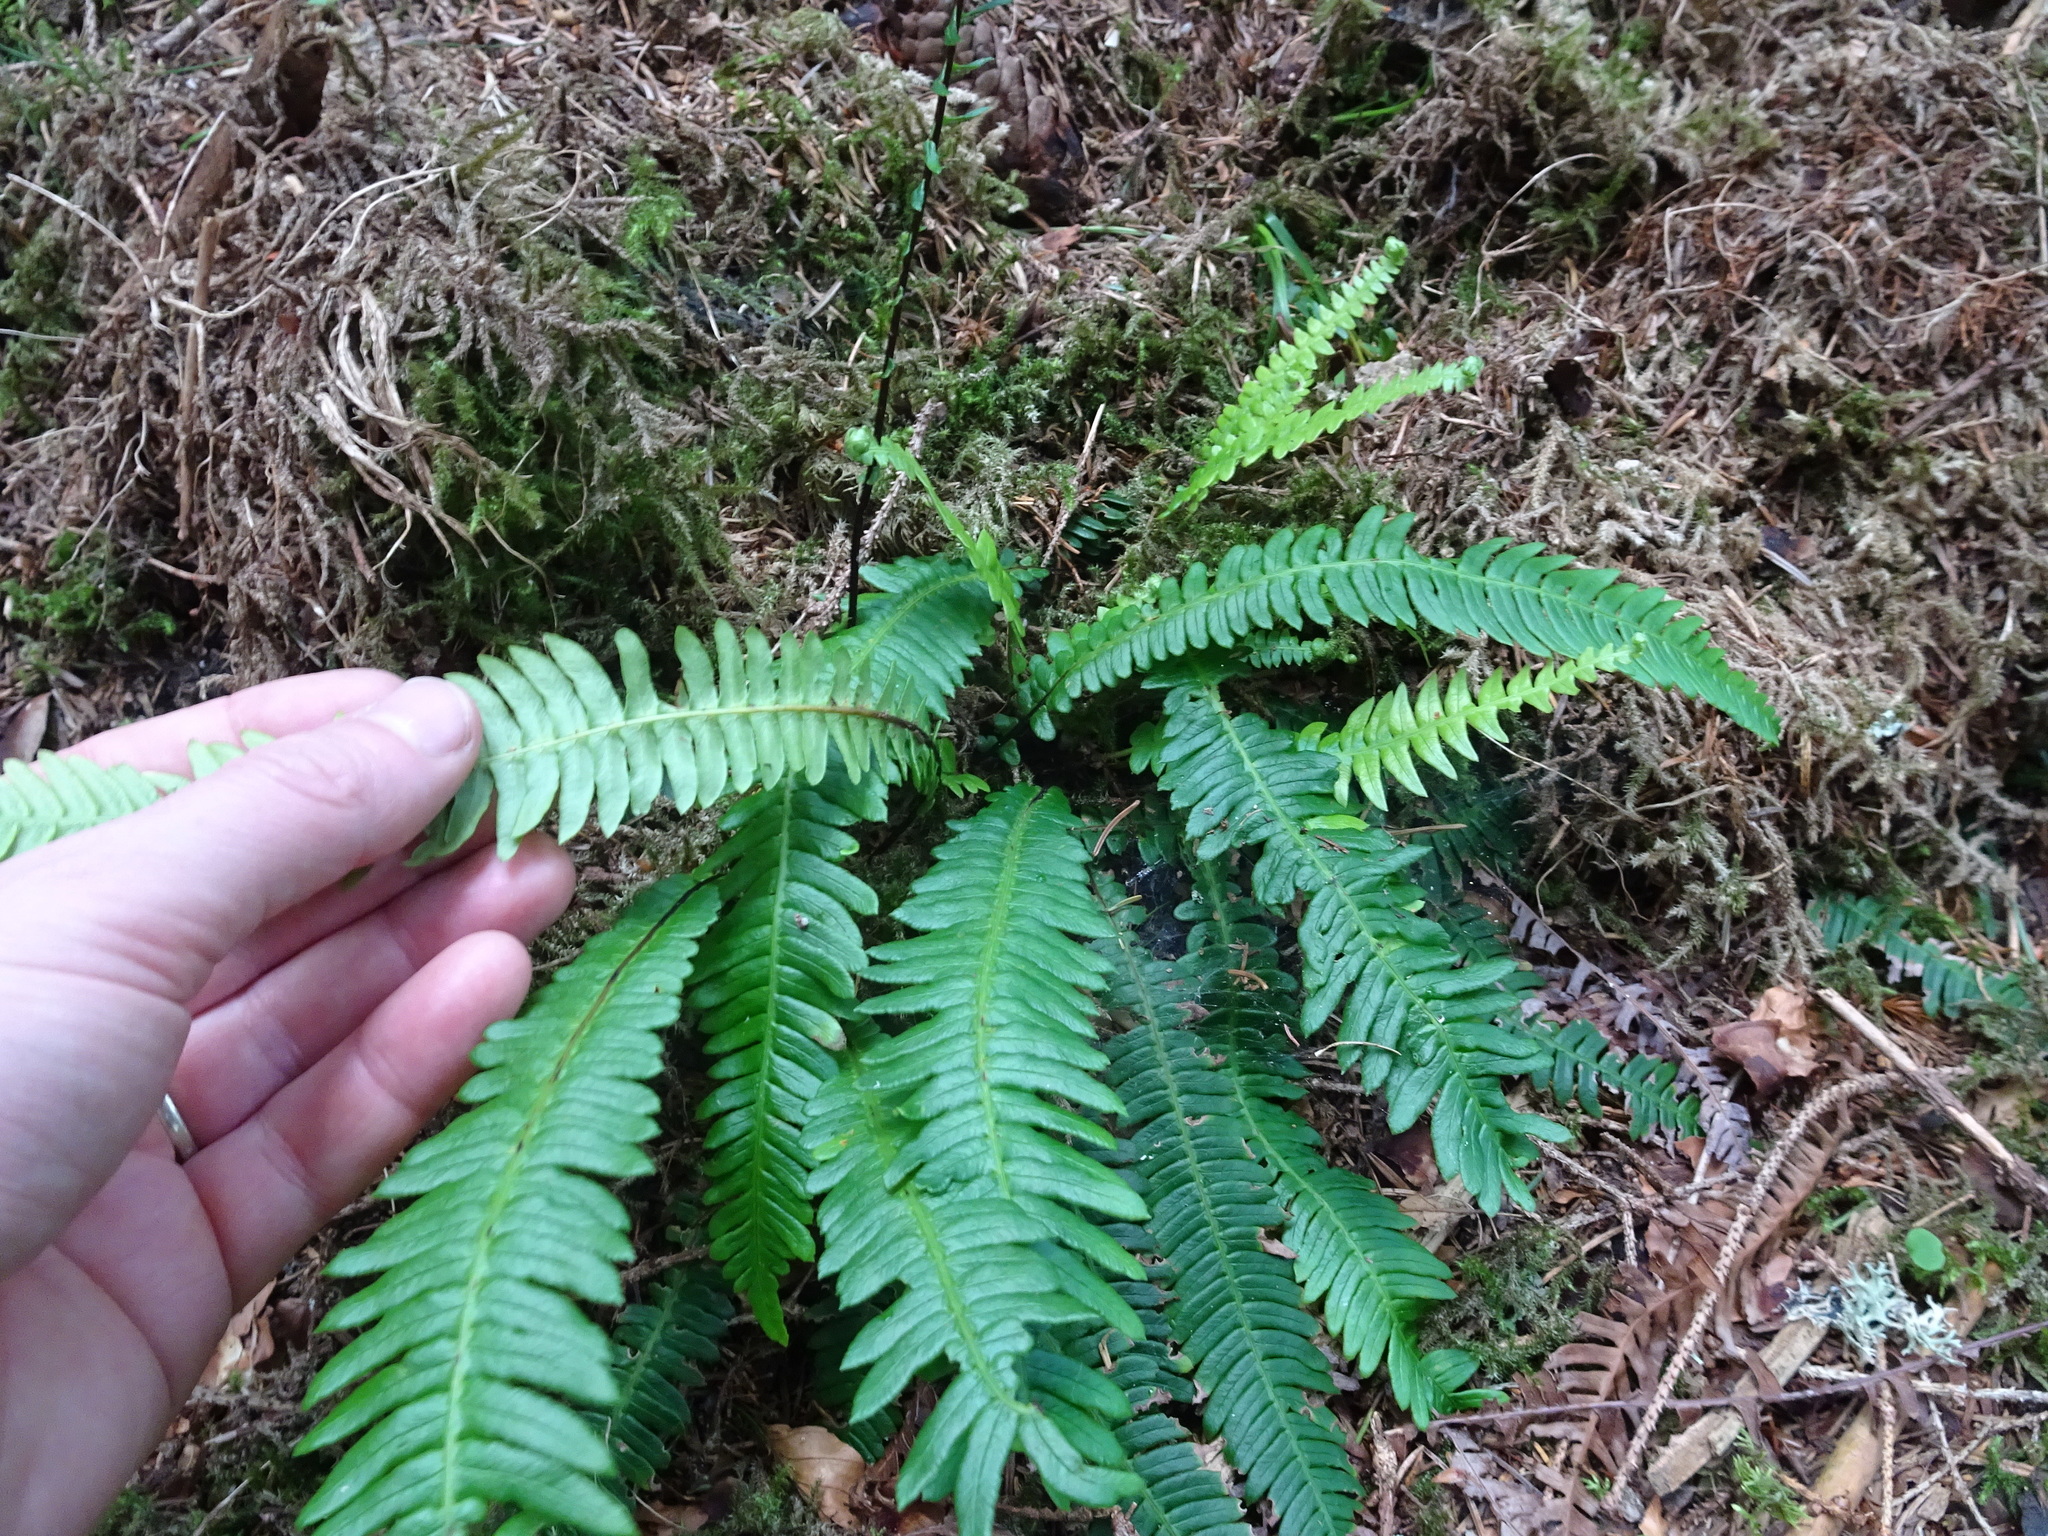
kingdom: Plantae
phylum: Tracheophyta
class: Polypodiopsida
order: Polypodiales
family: Blechnaceae
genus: Struthiopteris
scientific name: Struthiopteris spicant
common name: Deer fern
